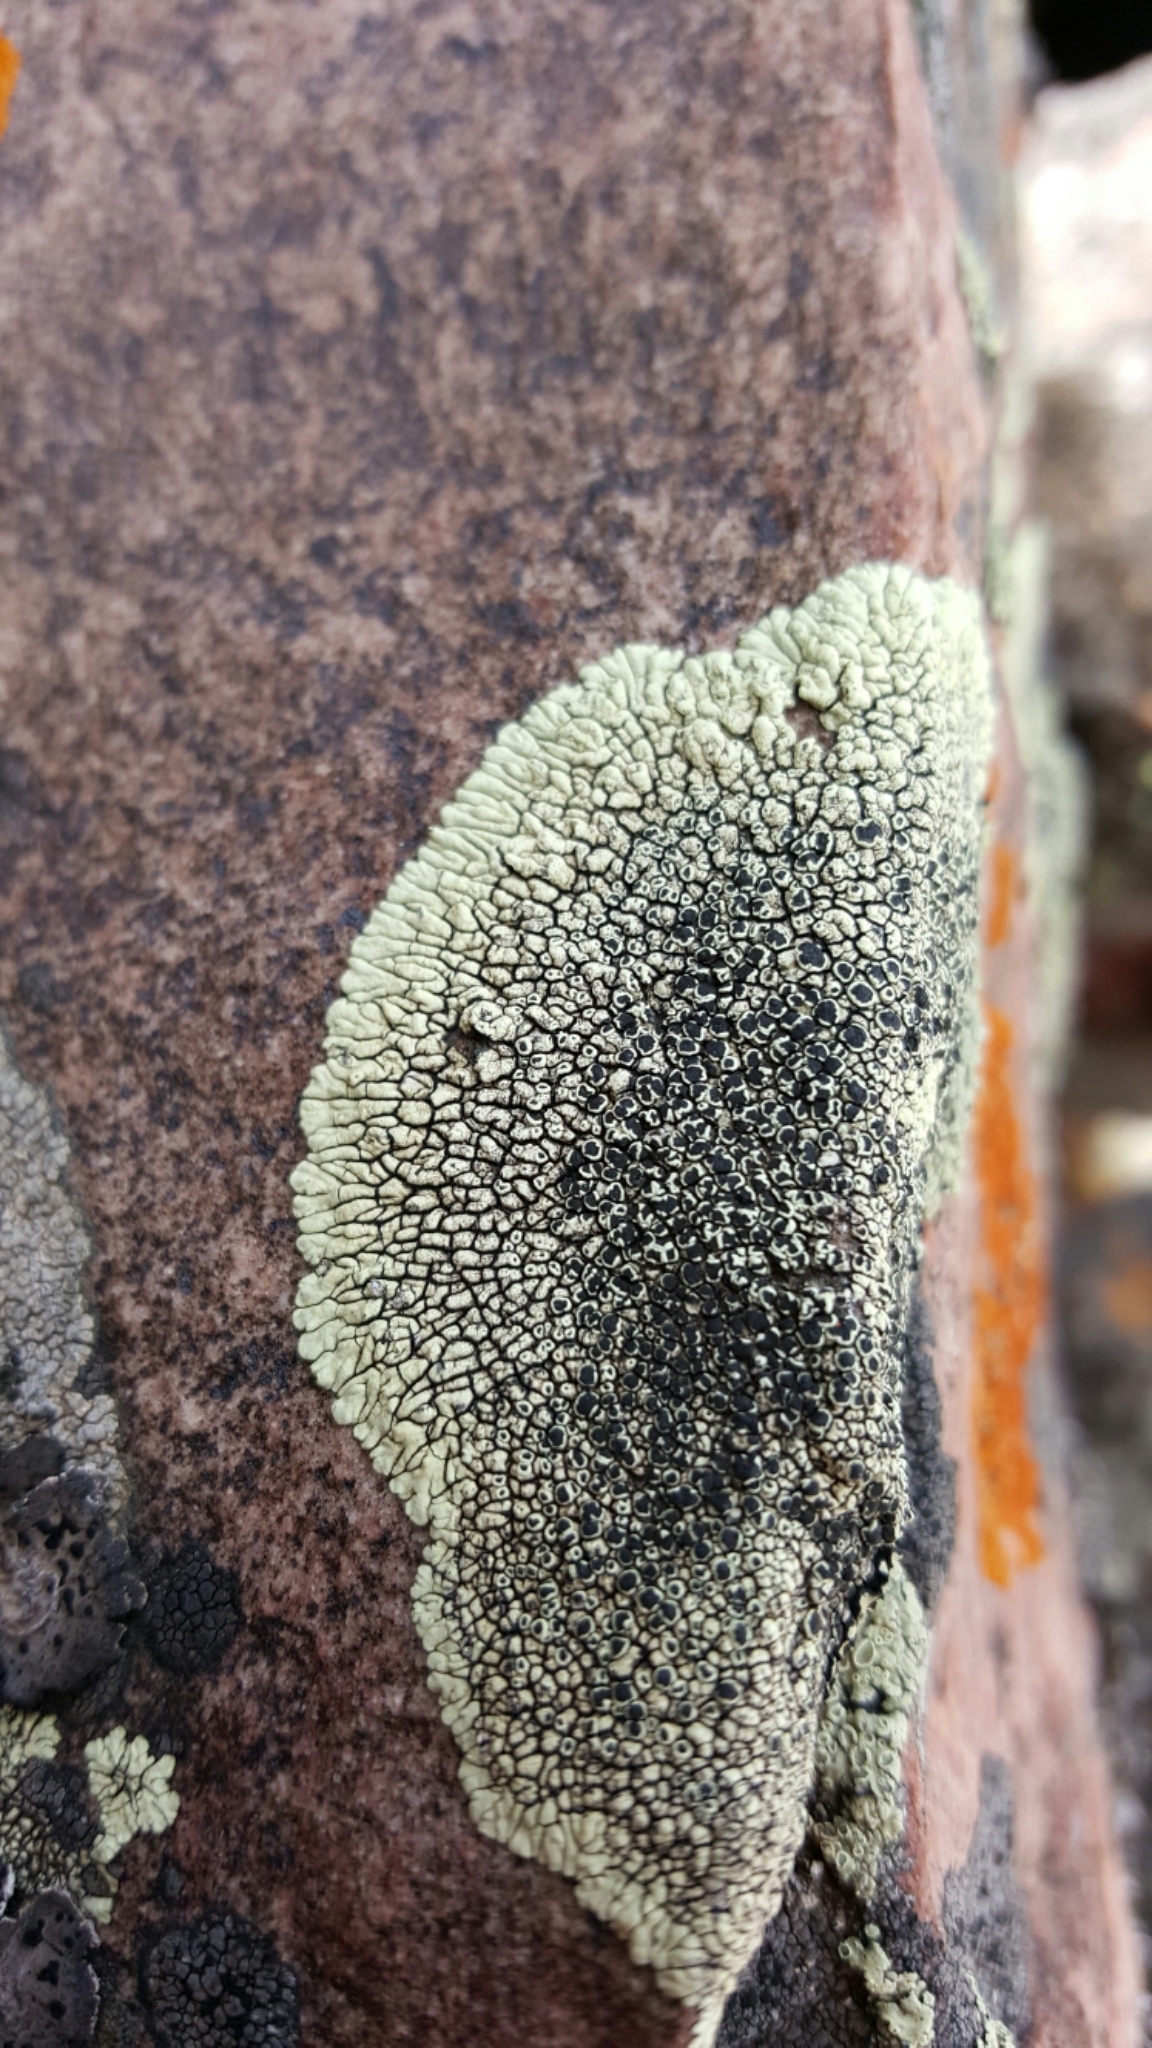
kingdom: Fungi
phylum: Ascomycota
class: Lecanoromycetes
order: Caliciales
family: Caliciaceae
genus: Dimelaena
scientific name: Dimelaena oreina
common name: Golden moonglow lichen
